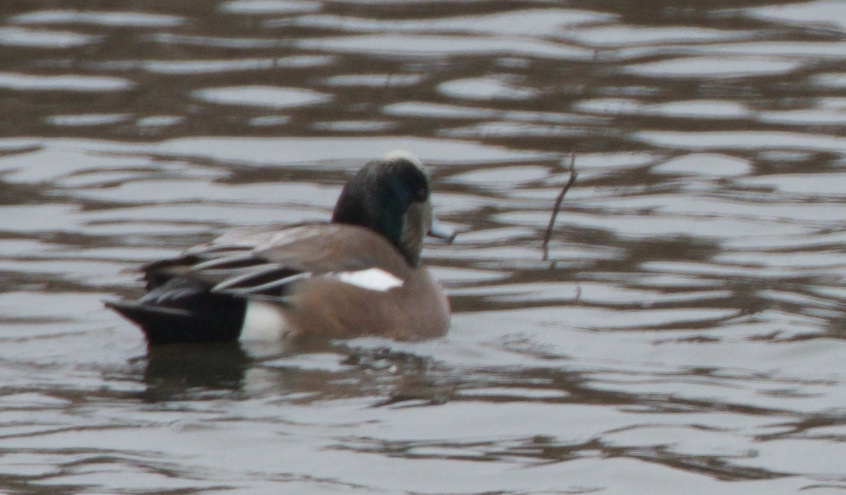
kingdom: Animalia
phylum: Chordata
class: Aves
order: Anseriformes
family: Anatidae
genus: Mareca
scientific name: Mareca americana
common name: American wigeon
